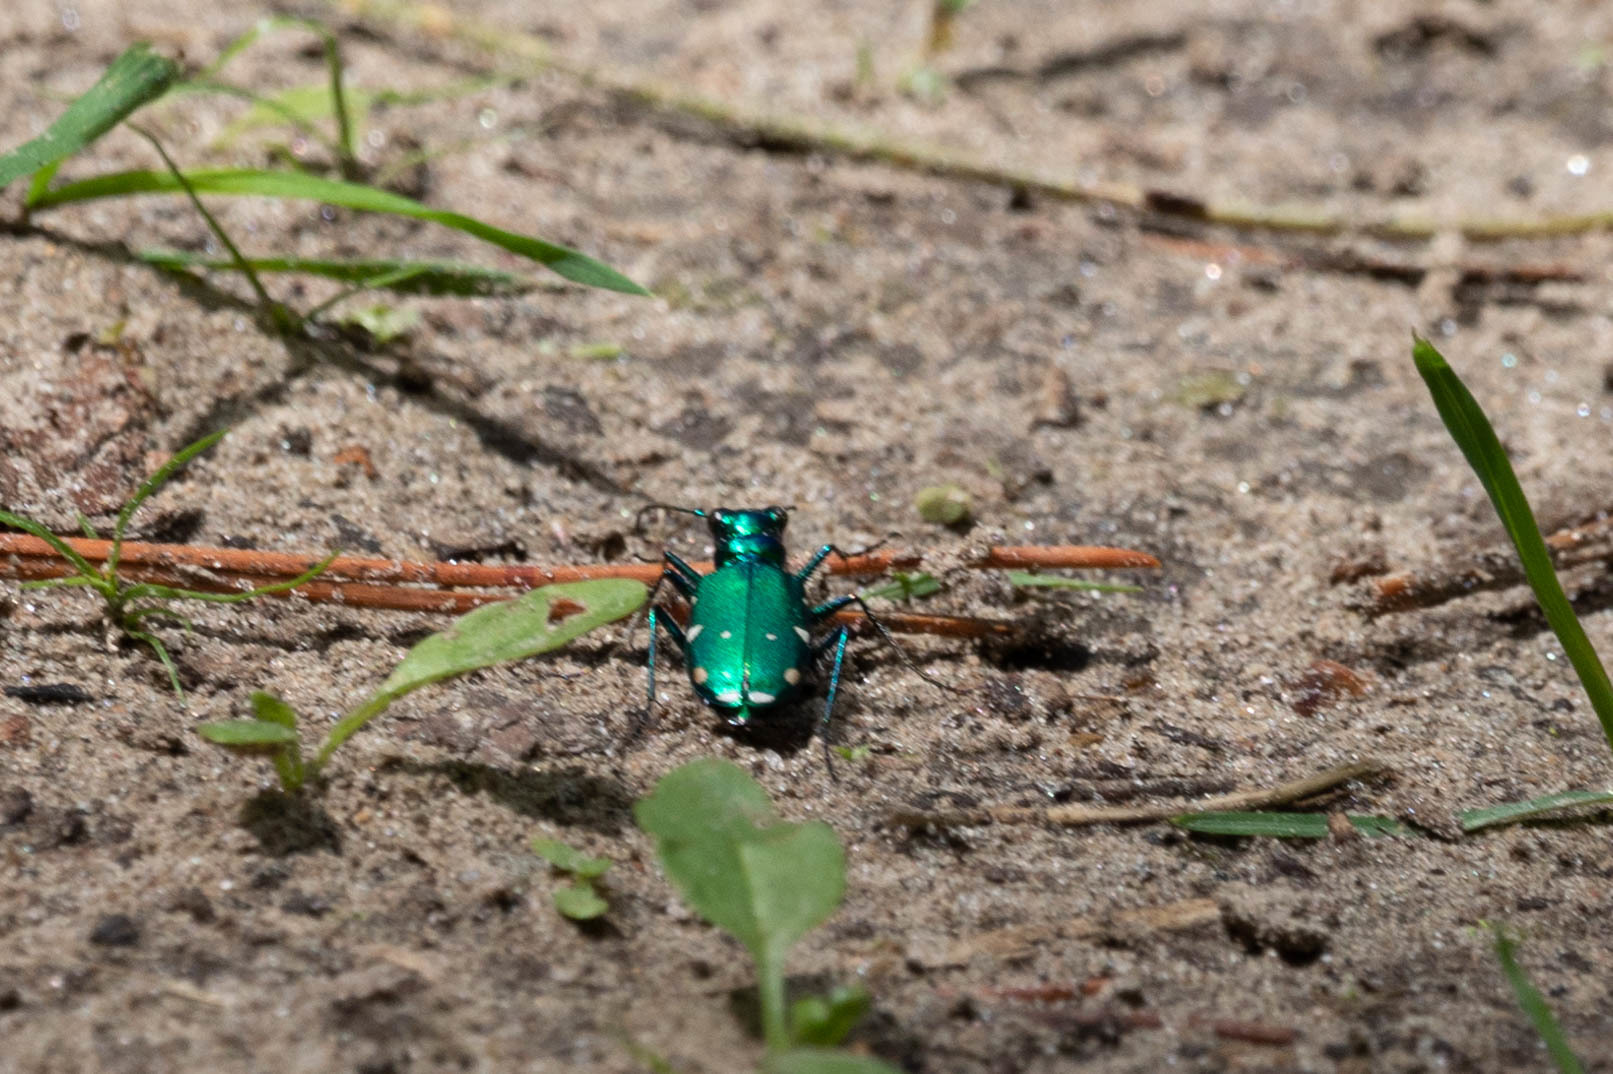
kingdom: Animalia
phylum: Arthropoda
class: Insecta
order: Coleoptera
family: Carabidae
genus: Cicindela
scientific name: Cicindela sexguttata
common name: Six-spotted tiger beetle
